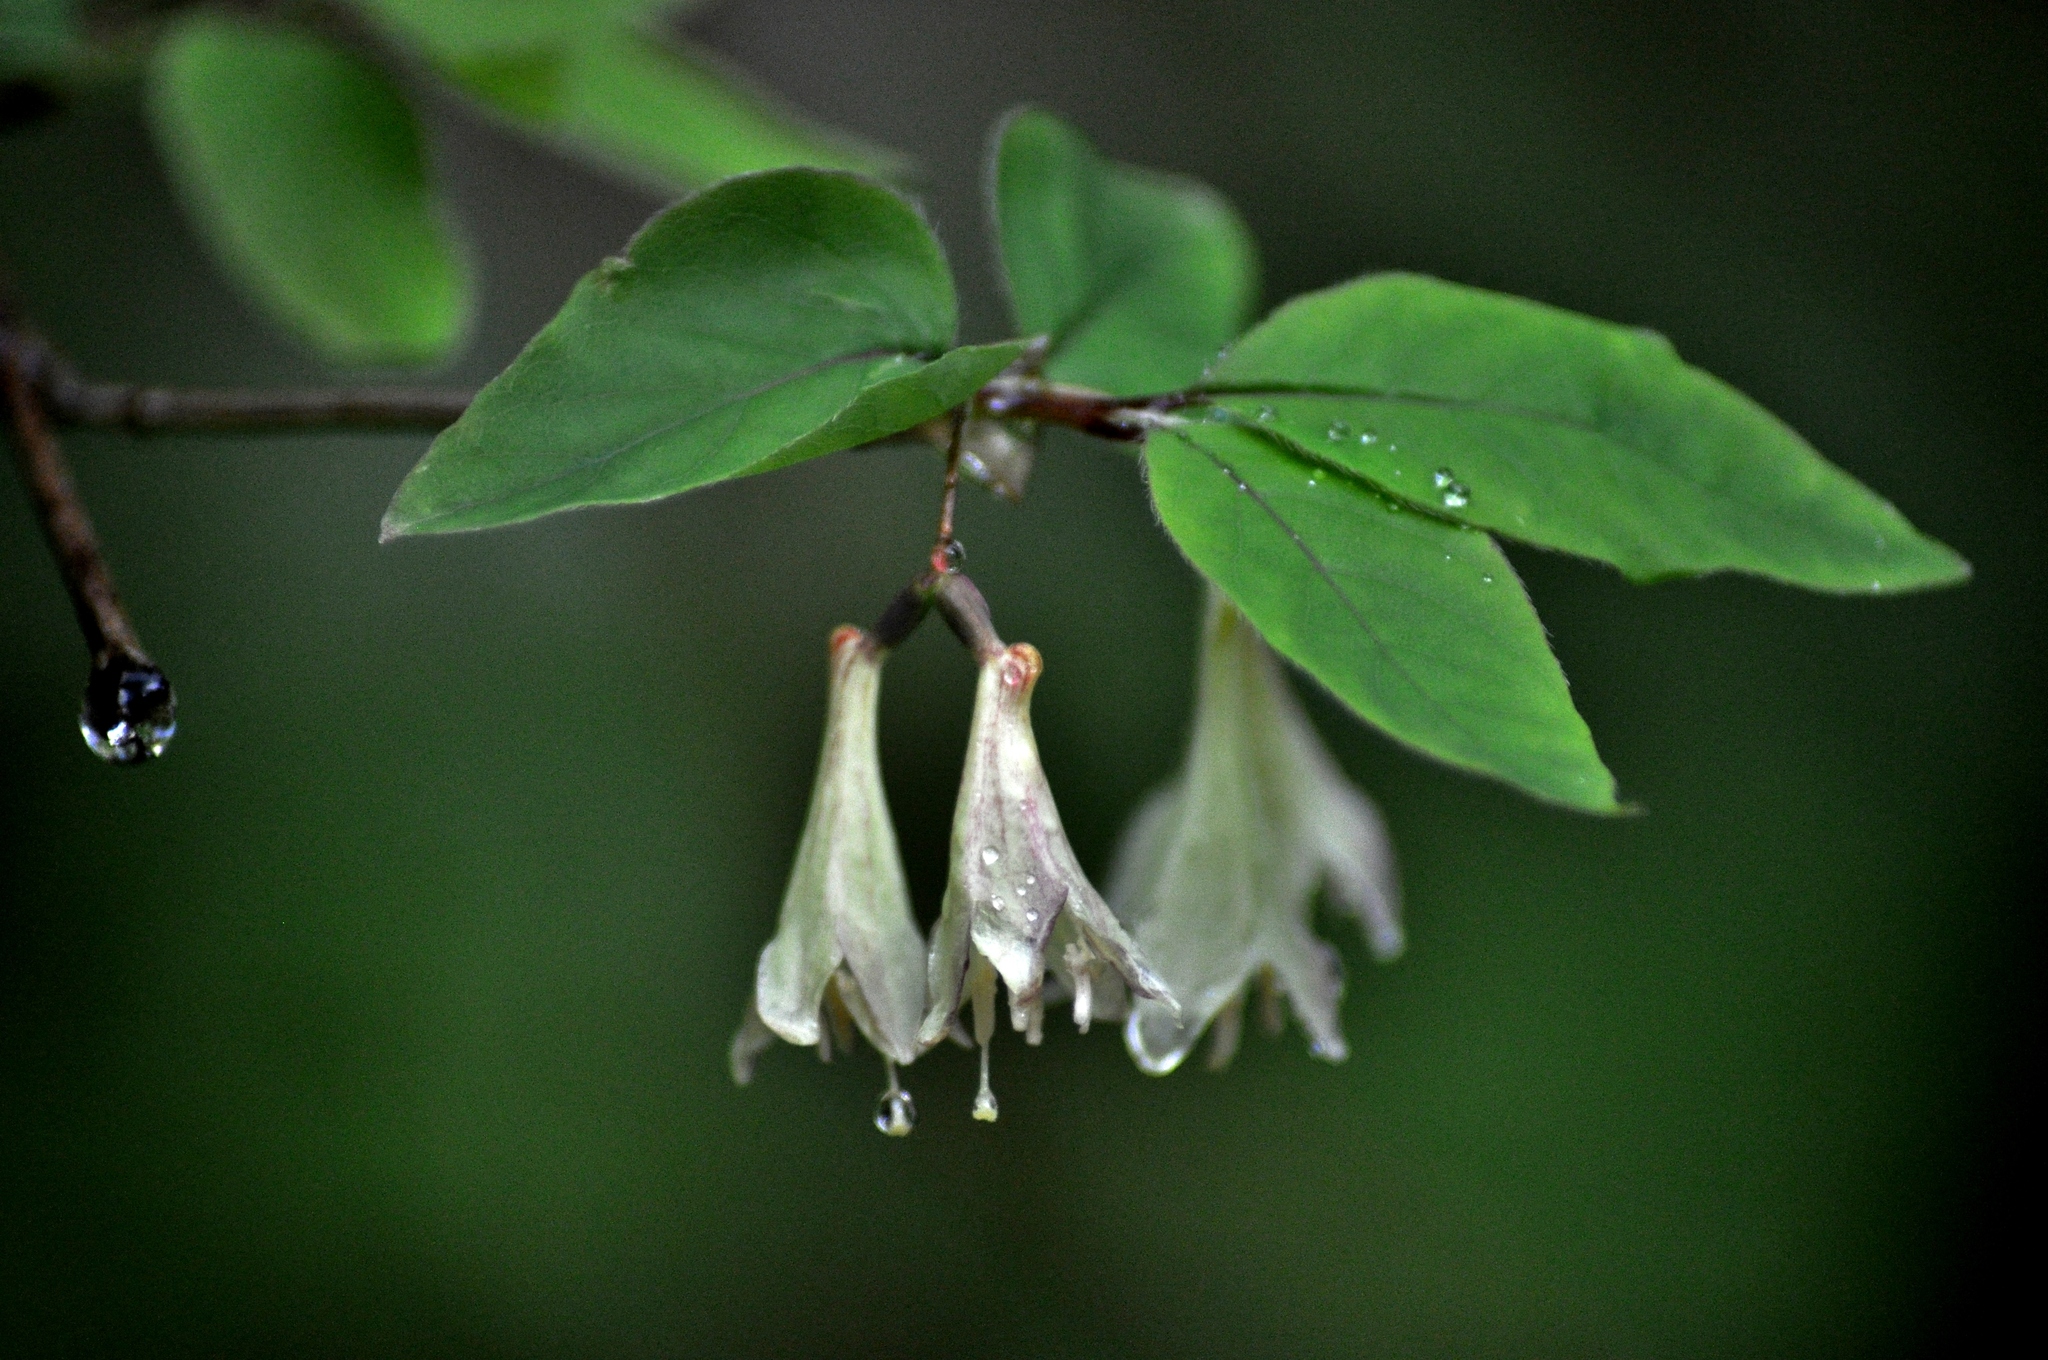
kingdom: Plantae
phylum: Tracheophyta
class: Magnoliopsida
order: Dipsacales
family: Caprifoliaceae
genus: Lonicera
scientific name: Lonicera canadensis
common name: American fly-honeysuckle
